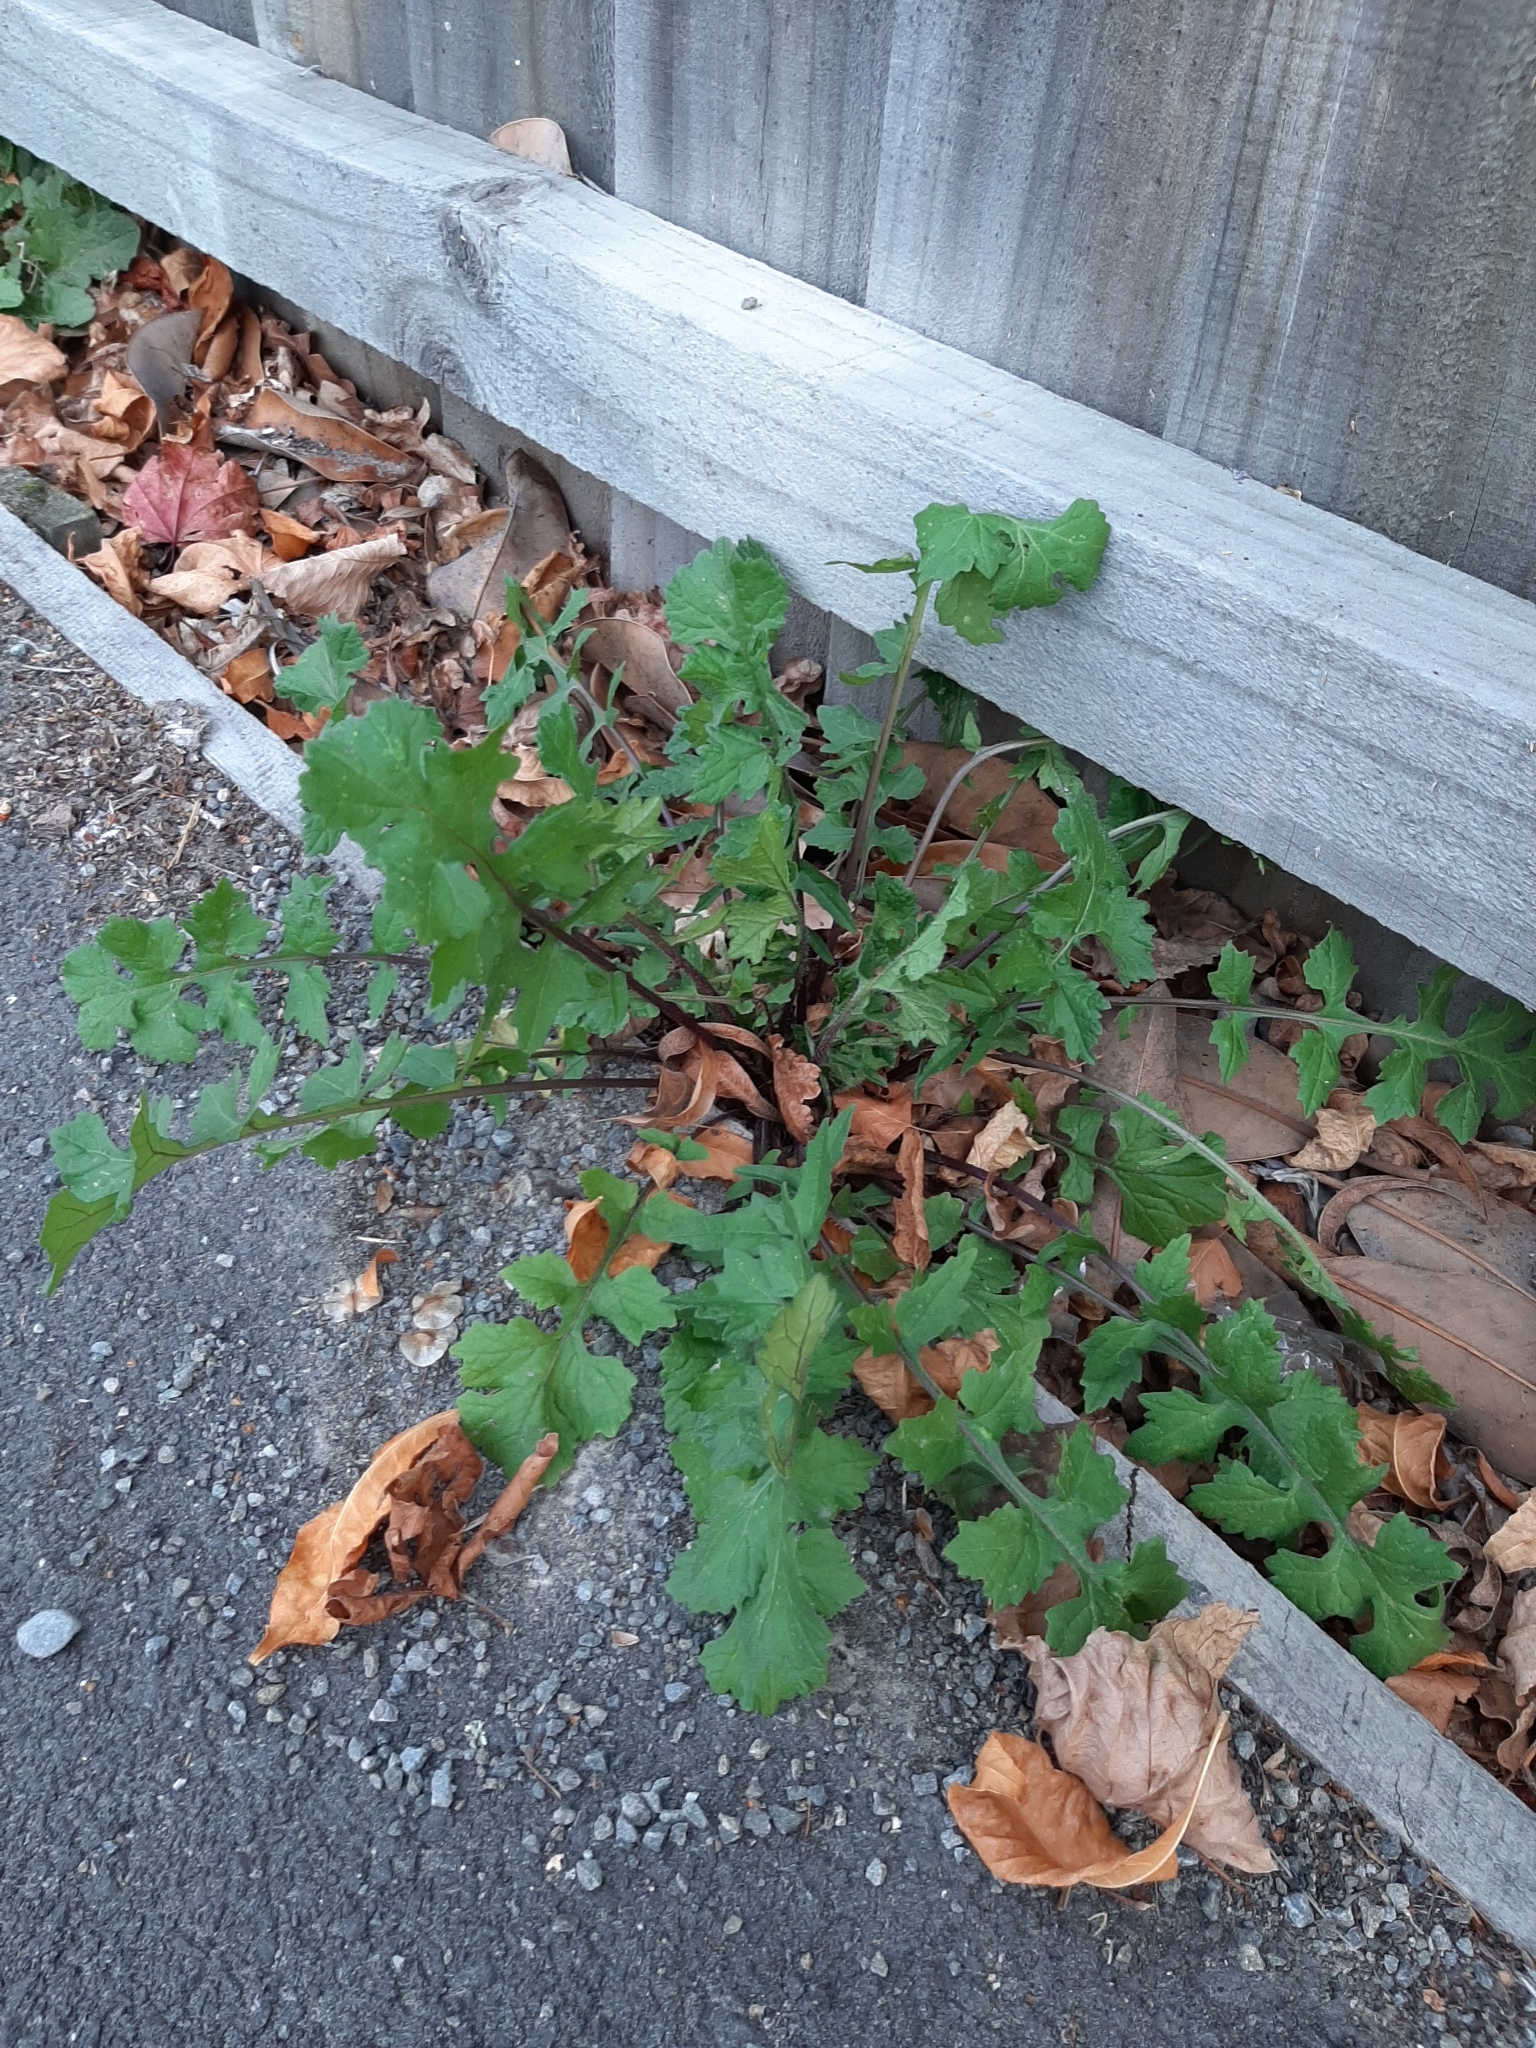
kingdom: Plantae
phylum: Tracheophyta
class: Magnoliopsida
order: Brassicales
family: Brassicaceae
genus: Sisymbrium
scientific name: Sisymbrium officinale
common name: Hedge mustard
